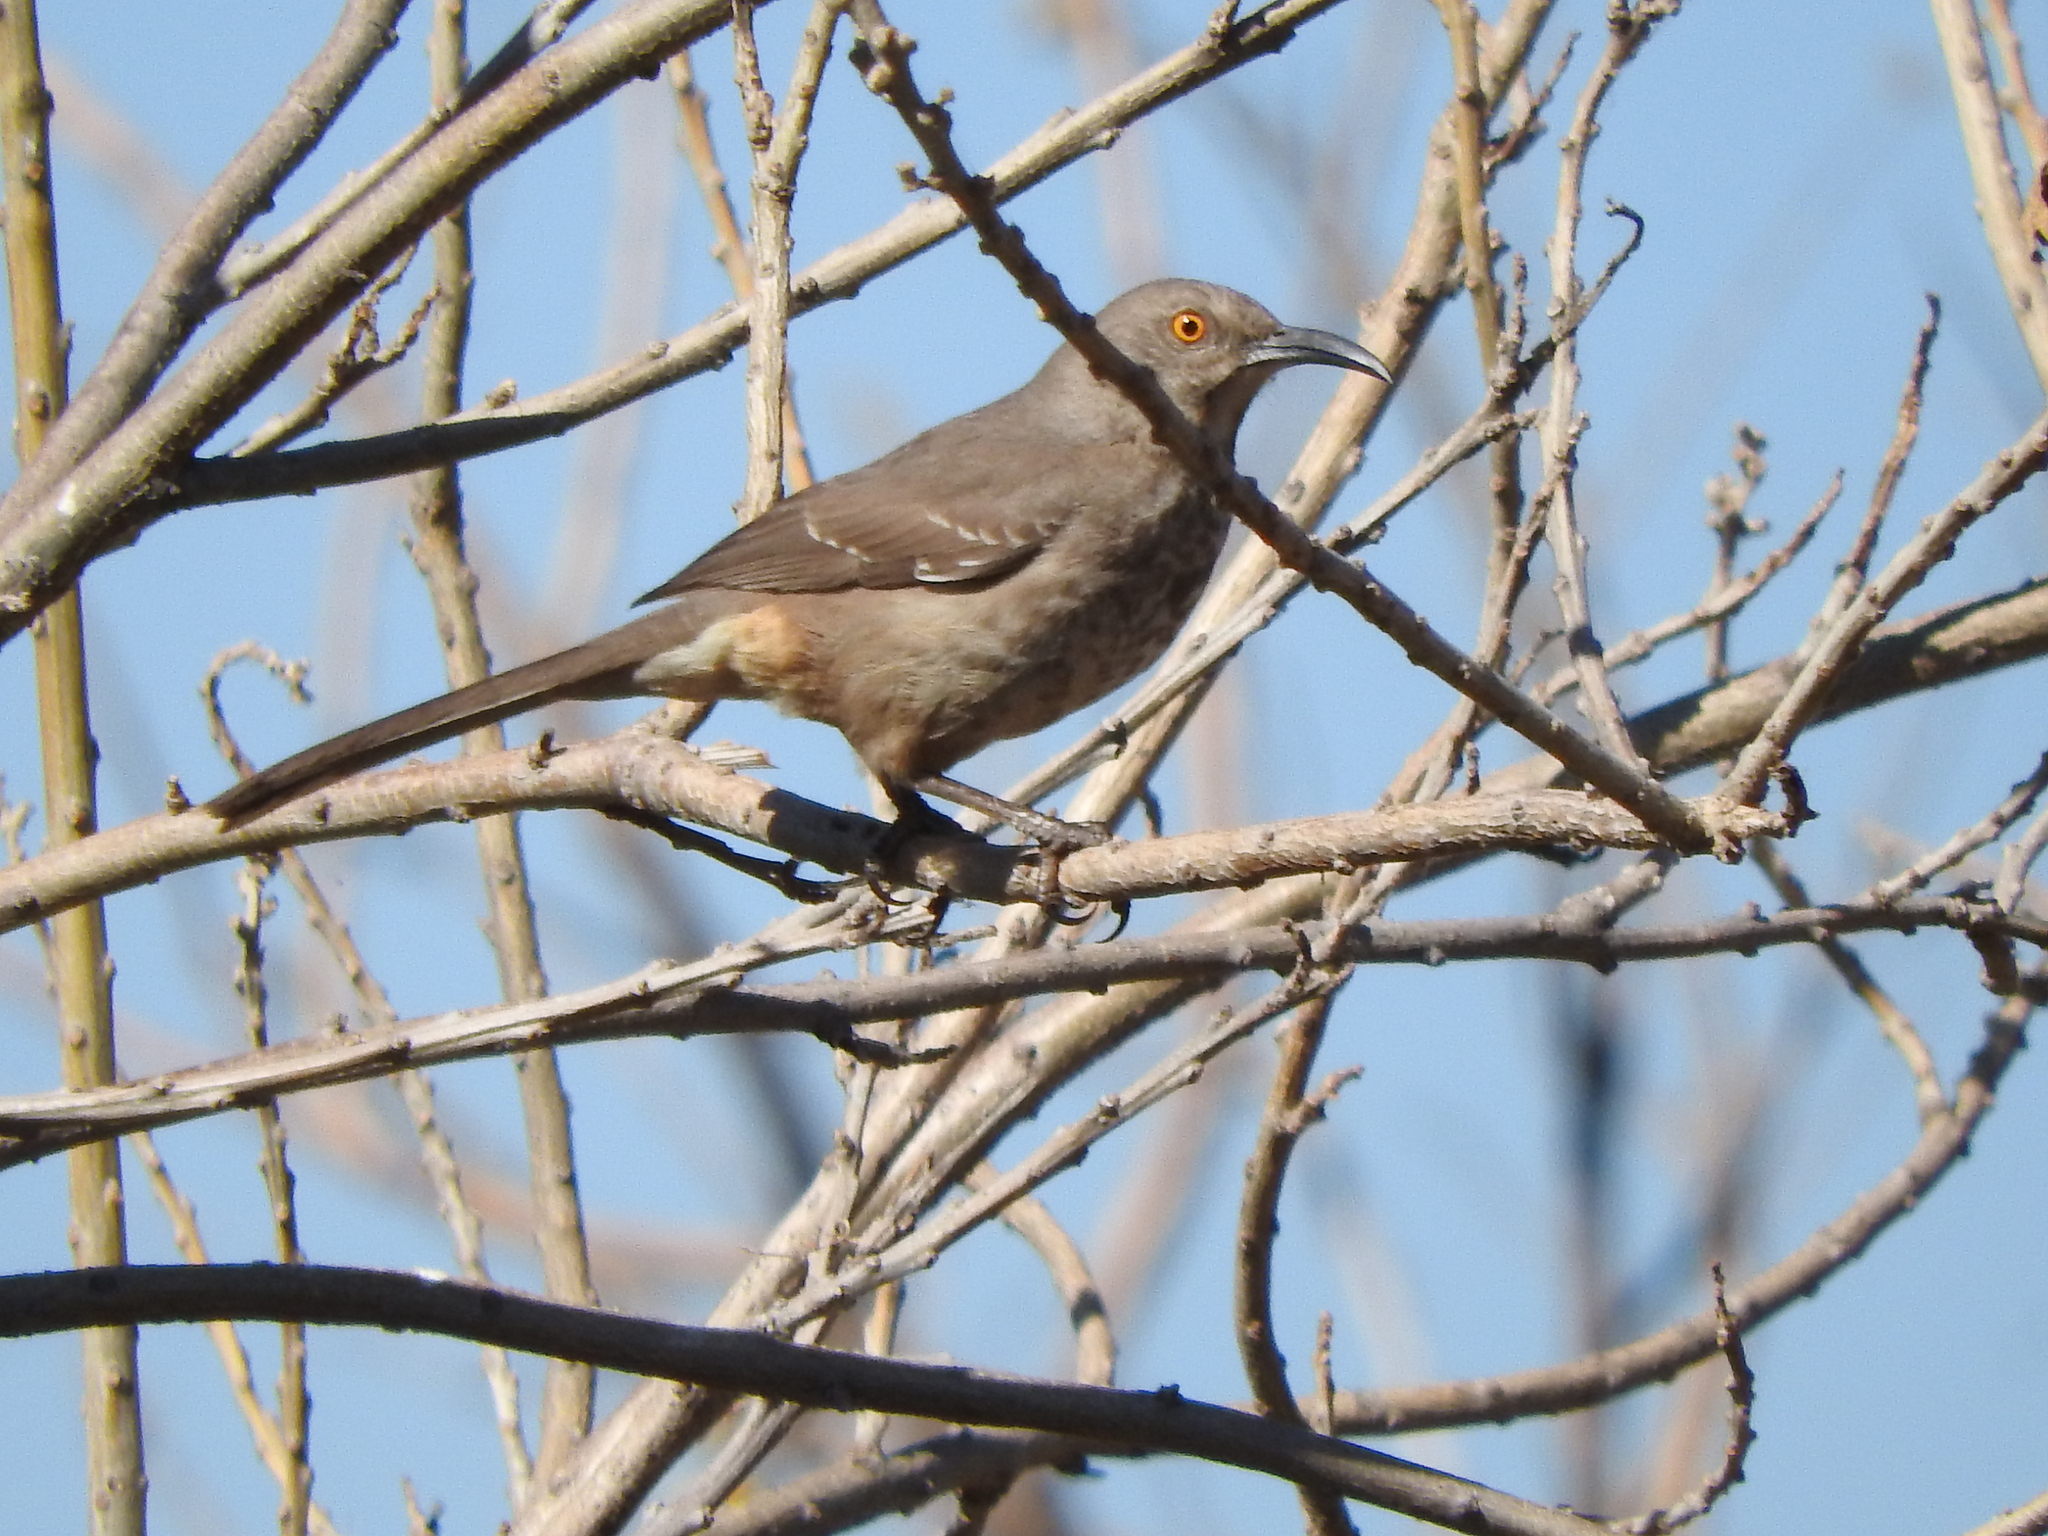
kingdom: Animalia
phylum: Chordata
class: Aves
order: Passeriformes
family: Mimidae
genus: Toxostoma
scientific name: Toxostoma curvirostre
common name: Curve-billed thrasher
